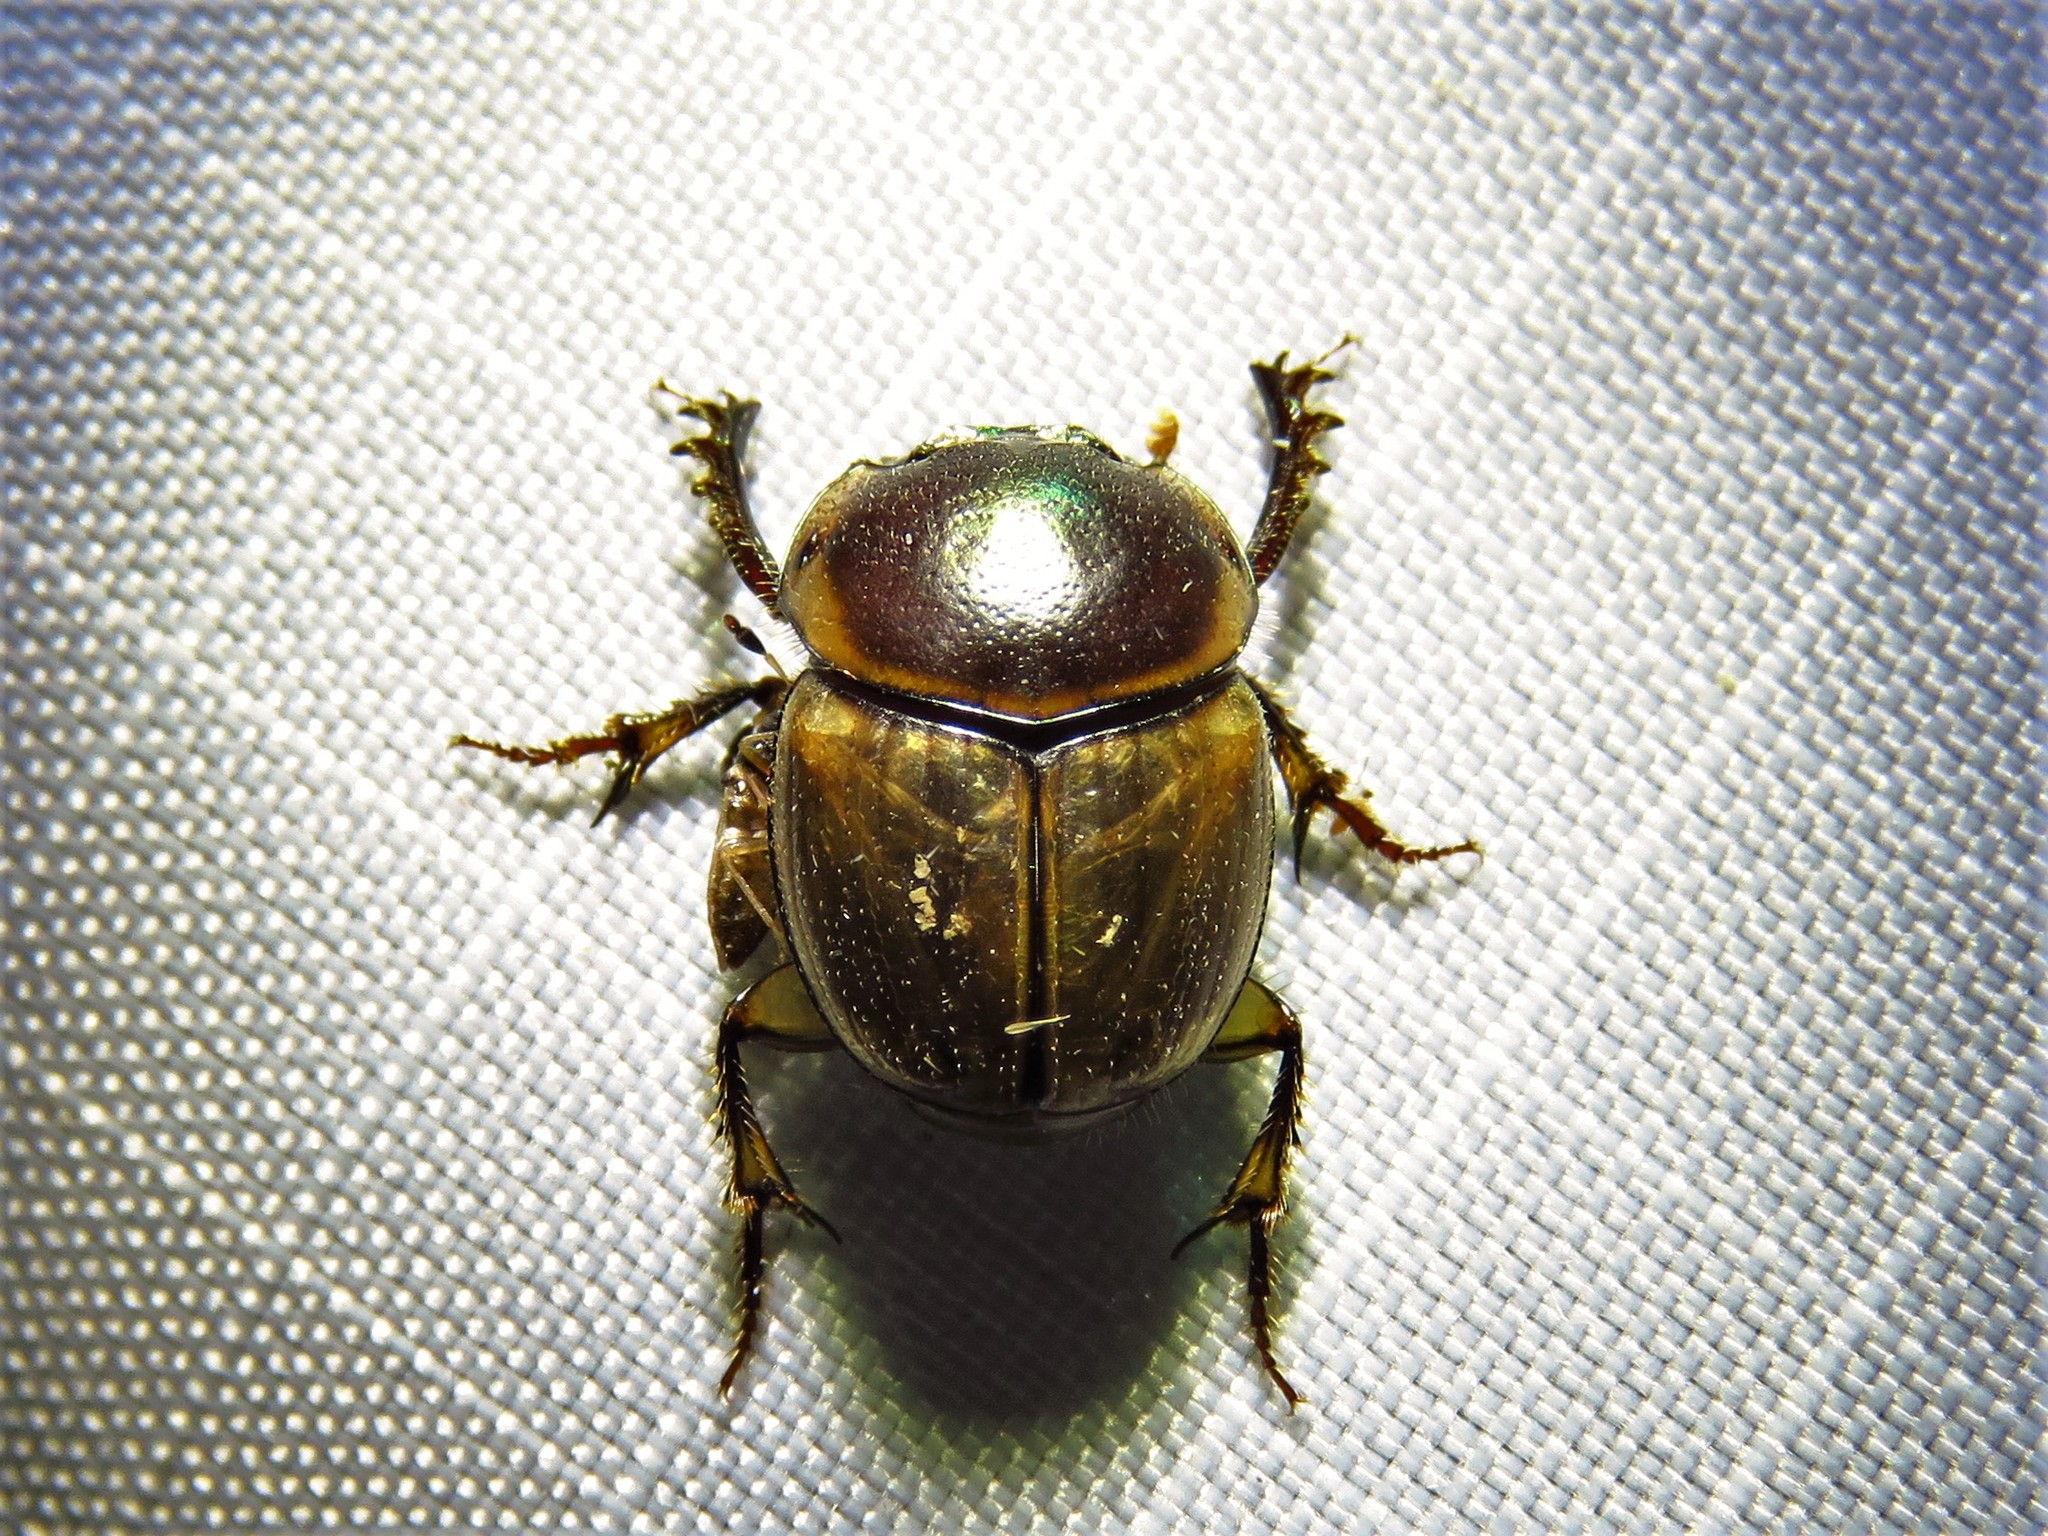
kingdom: Animalia
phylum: Arthropoda
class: Insecta
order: Coleoptera
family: Scarabaeidae
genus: Digitonthophagus
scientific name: Digitonthophagus gazella
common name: Brown dung beetle
